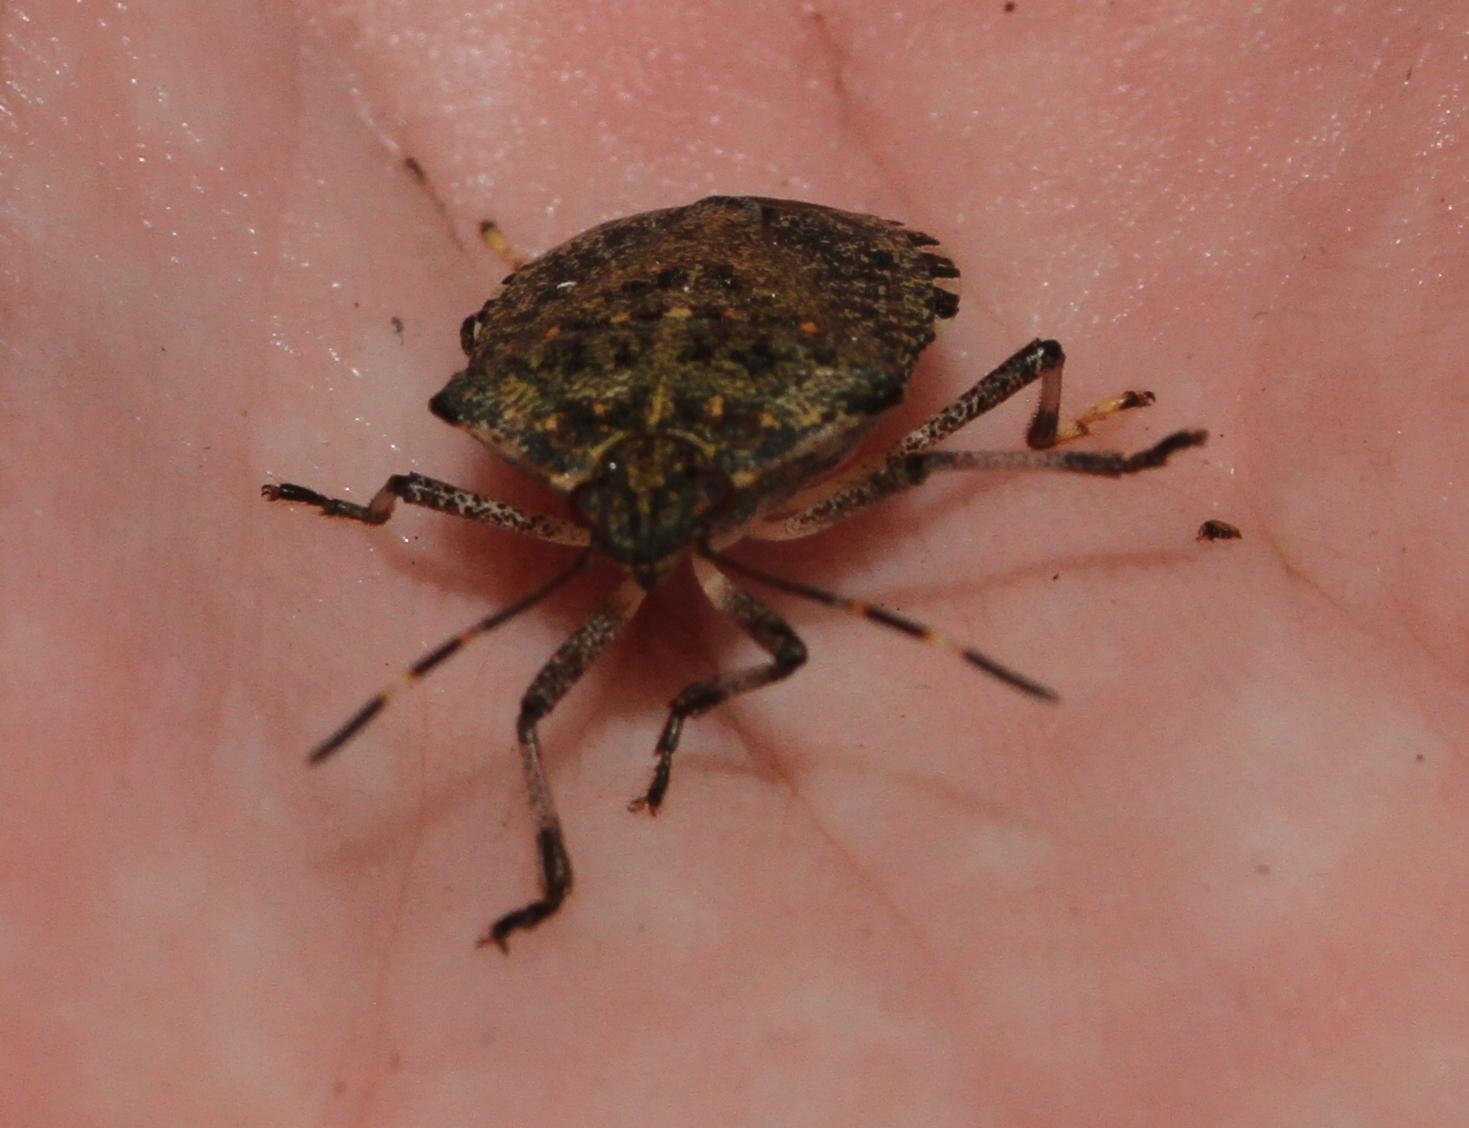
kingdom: Animalia
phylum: Arthropoda
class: Insecta
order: Hemiptera
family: Pentatomidae
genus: Halyomorpha
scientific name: Halyomorpha halys
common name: Brown marmorated stink bug
